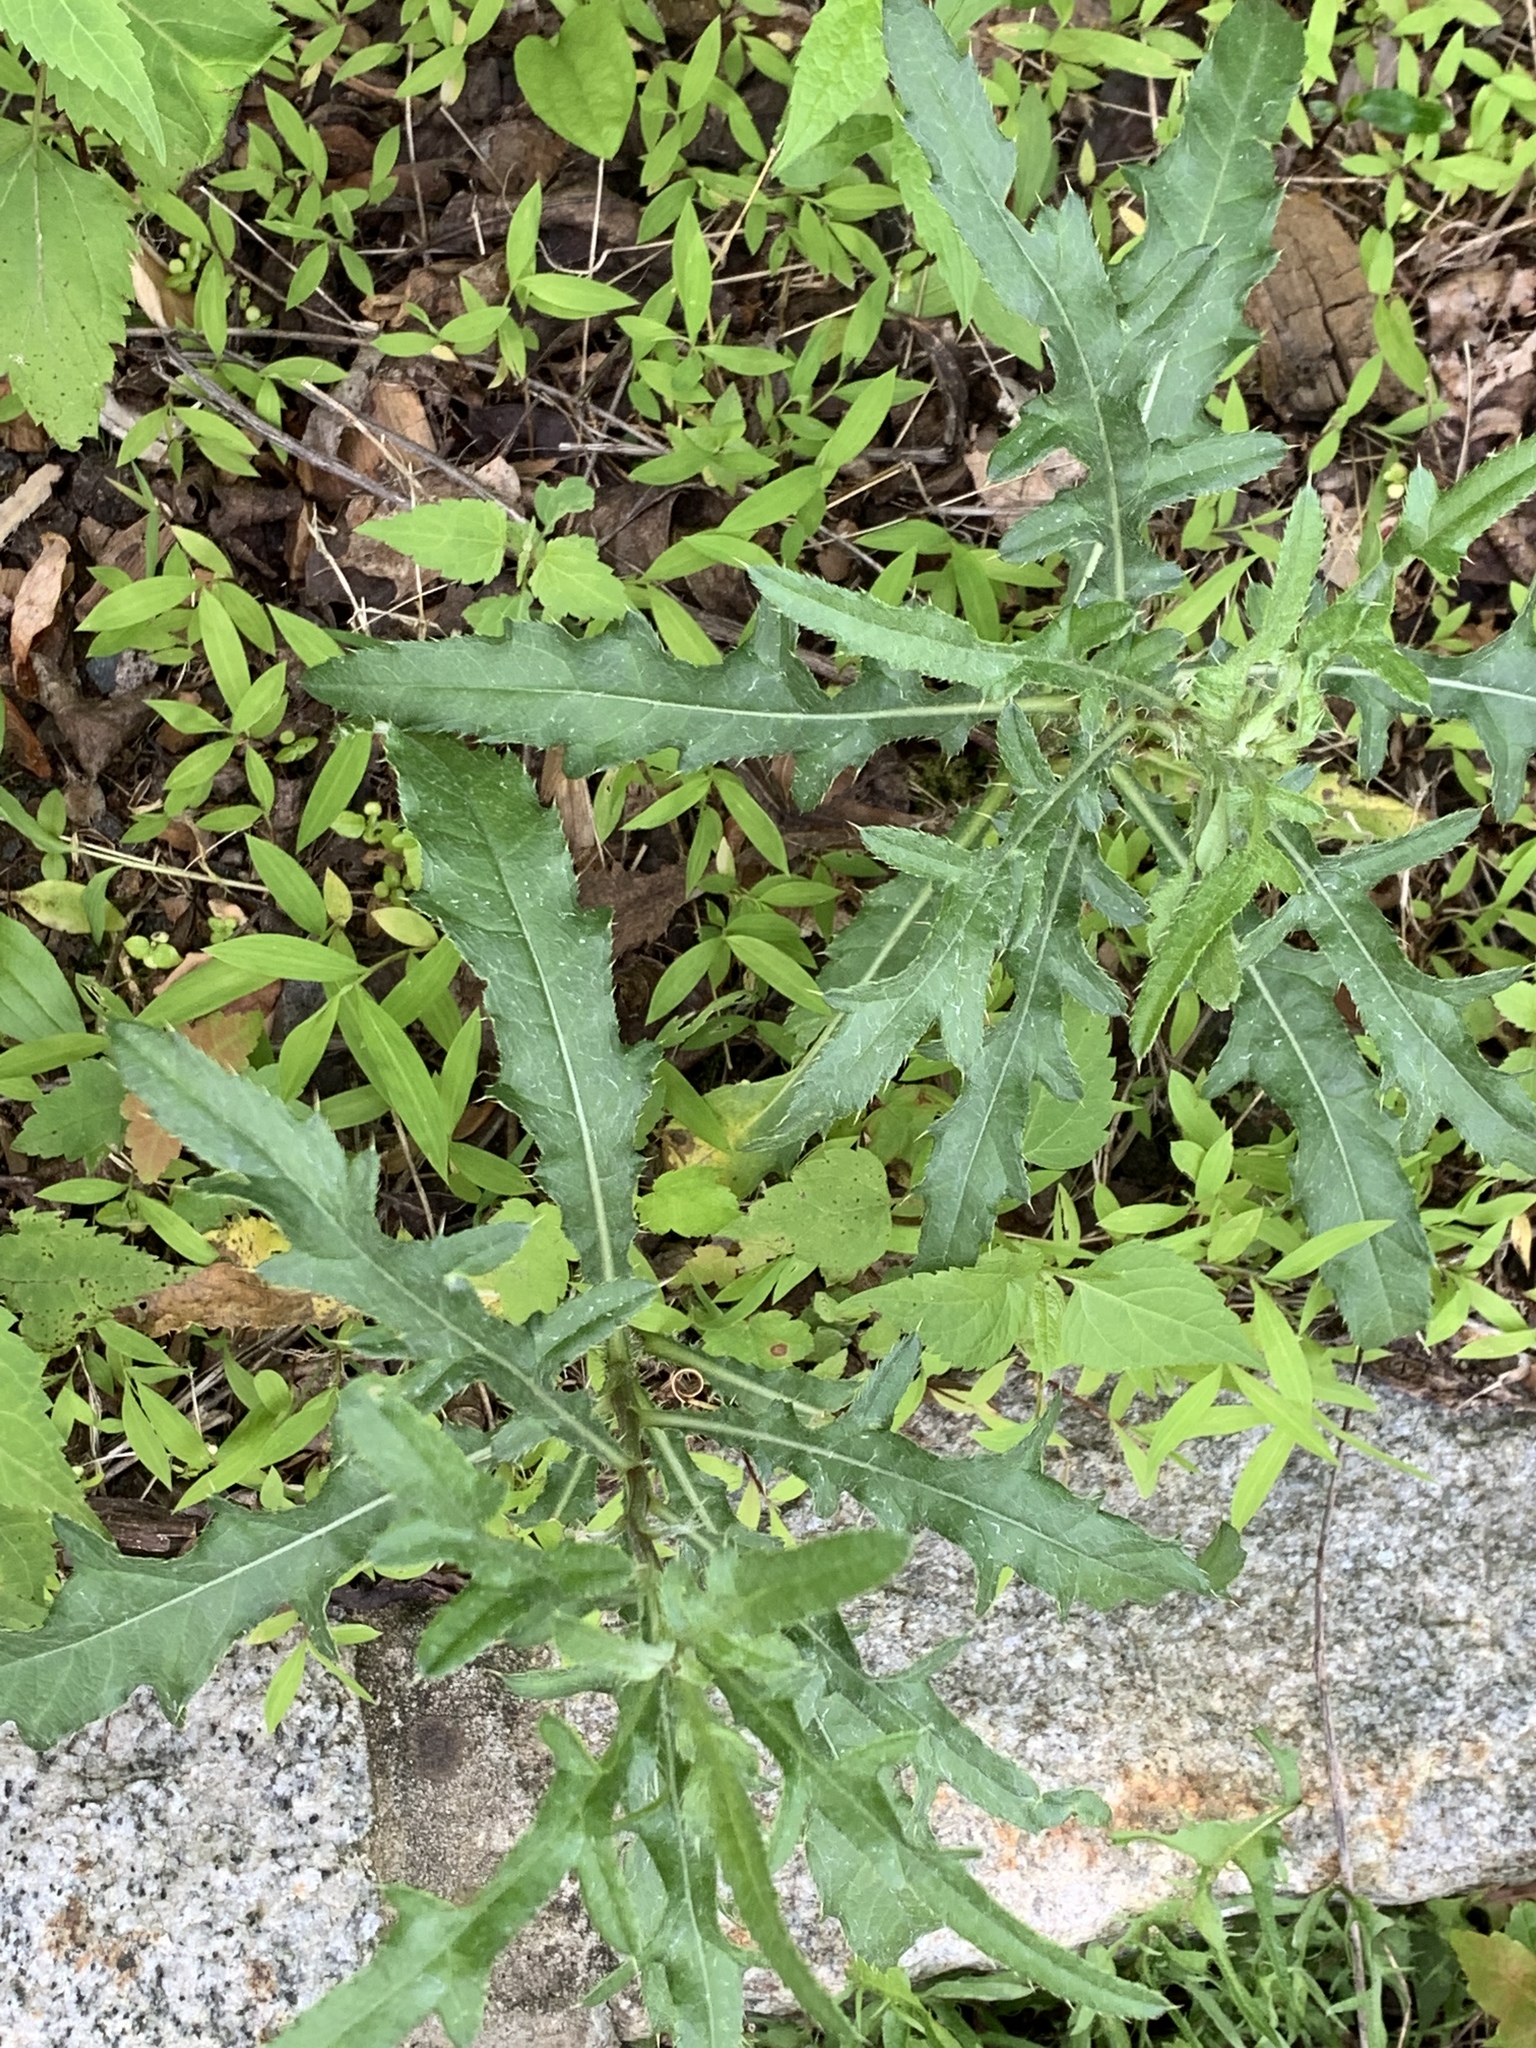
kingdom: Plantae
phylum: Tracheophyta
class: Magnoliopsida
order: Asterales
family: Asteraceae
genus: Cirsium
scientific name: Cirsium arvense
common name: Creeping thistle
